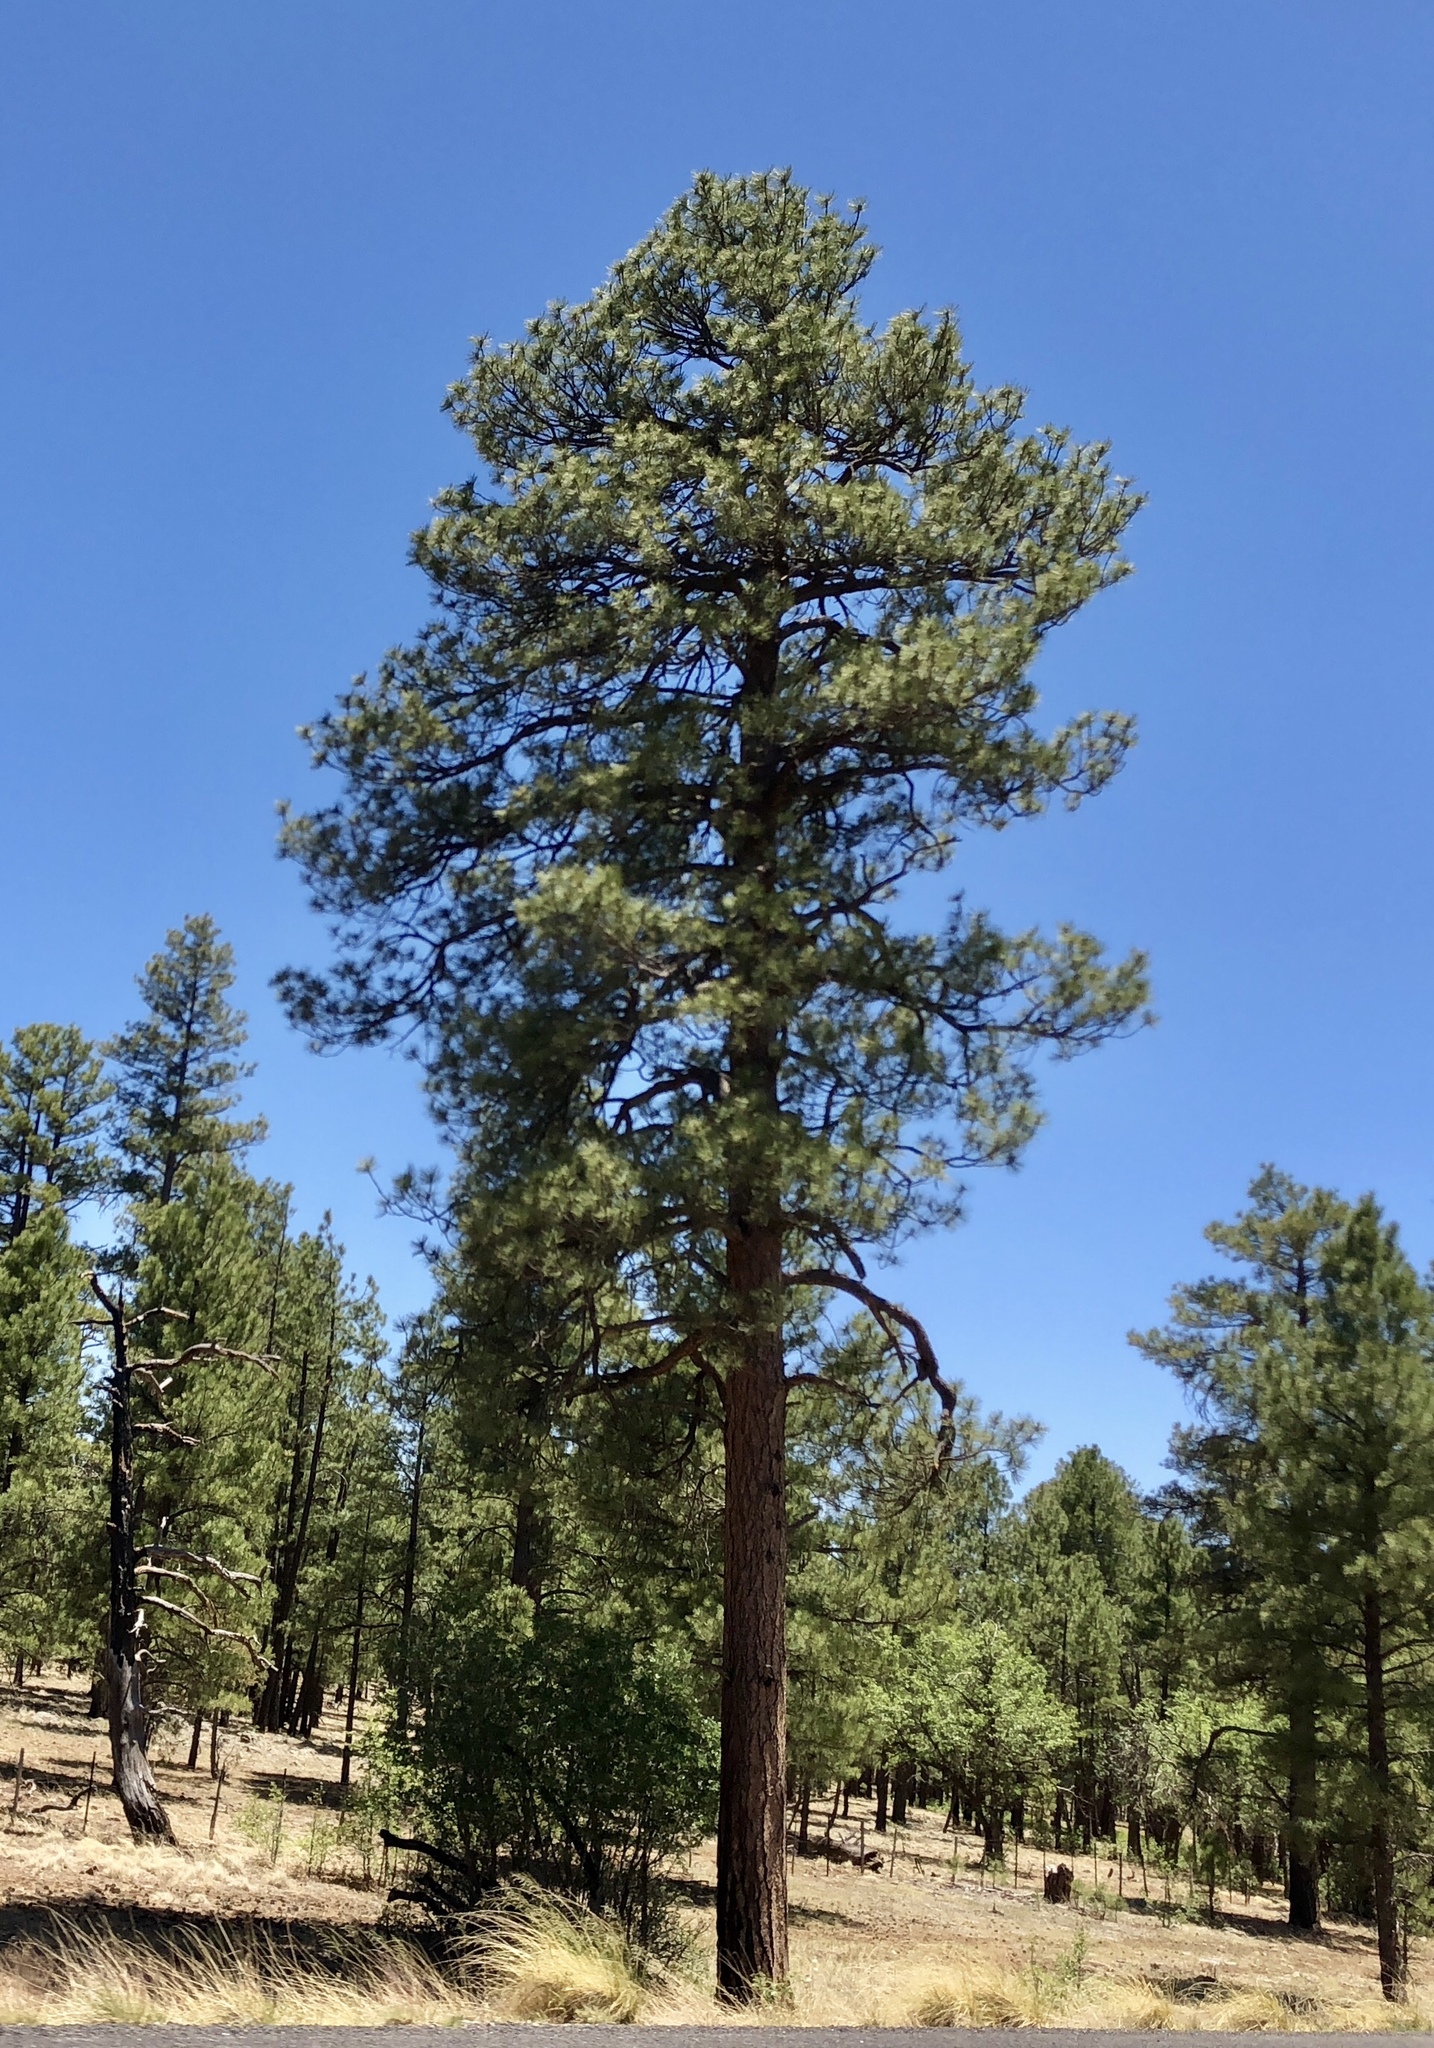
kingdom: Plantae
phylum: Tracheophyta
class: Pinopsida
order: Pinales
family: Pinaceae
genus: Pinus
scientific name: Pinus ponderosa
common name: Western yellow-pine
